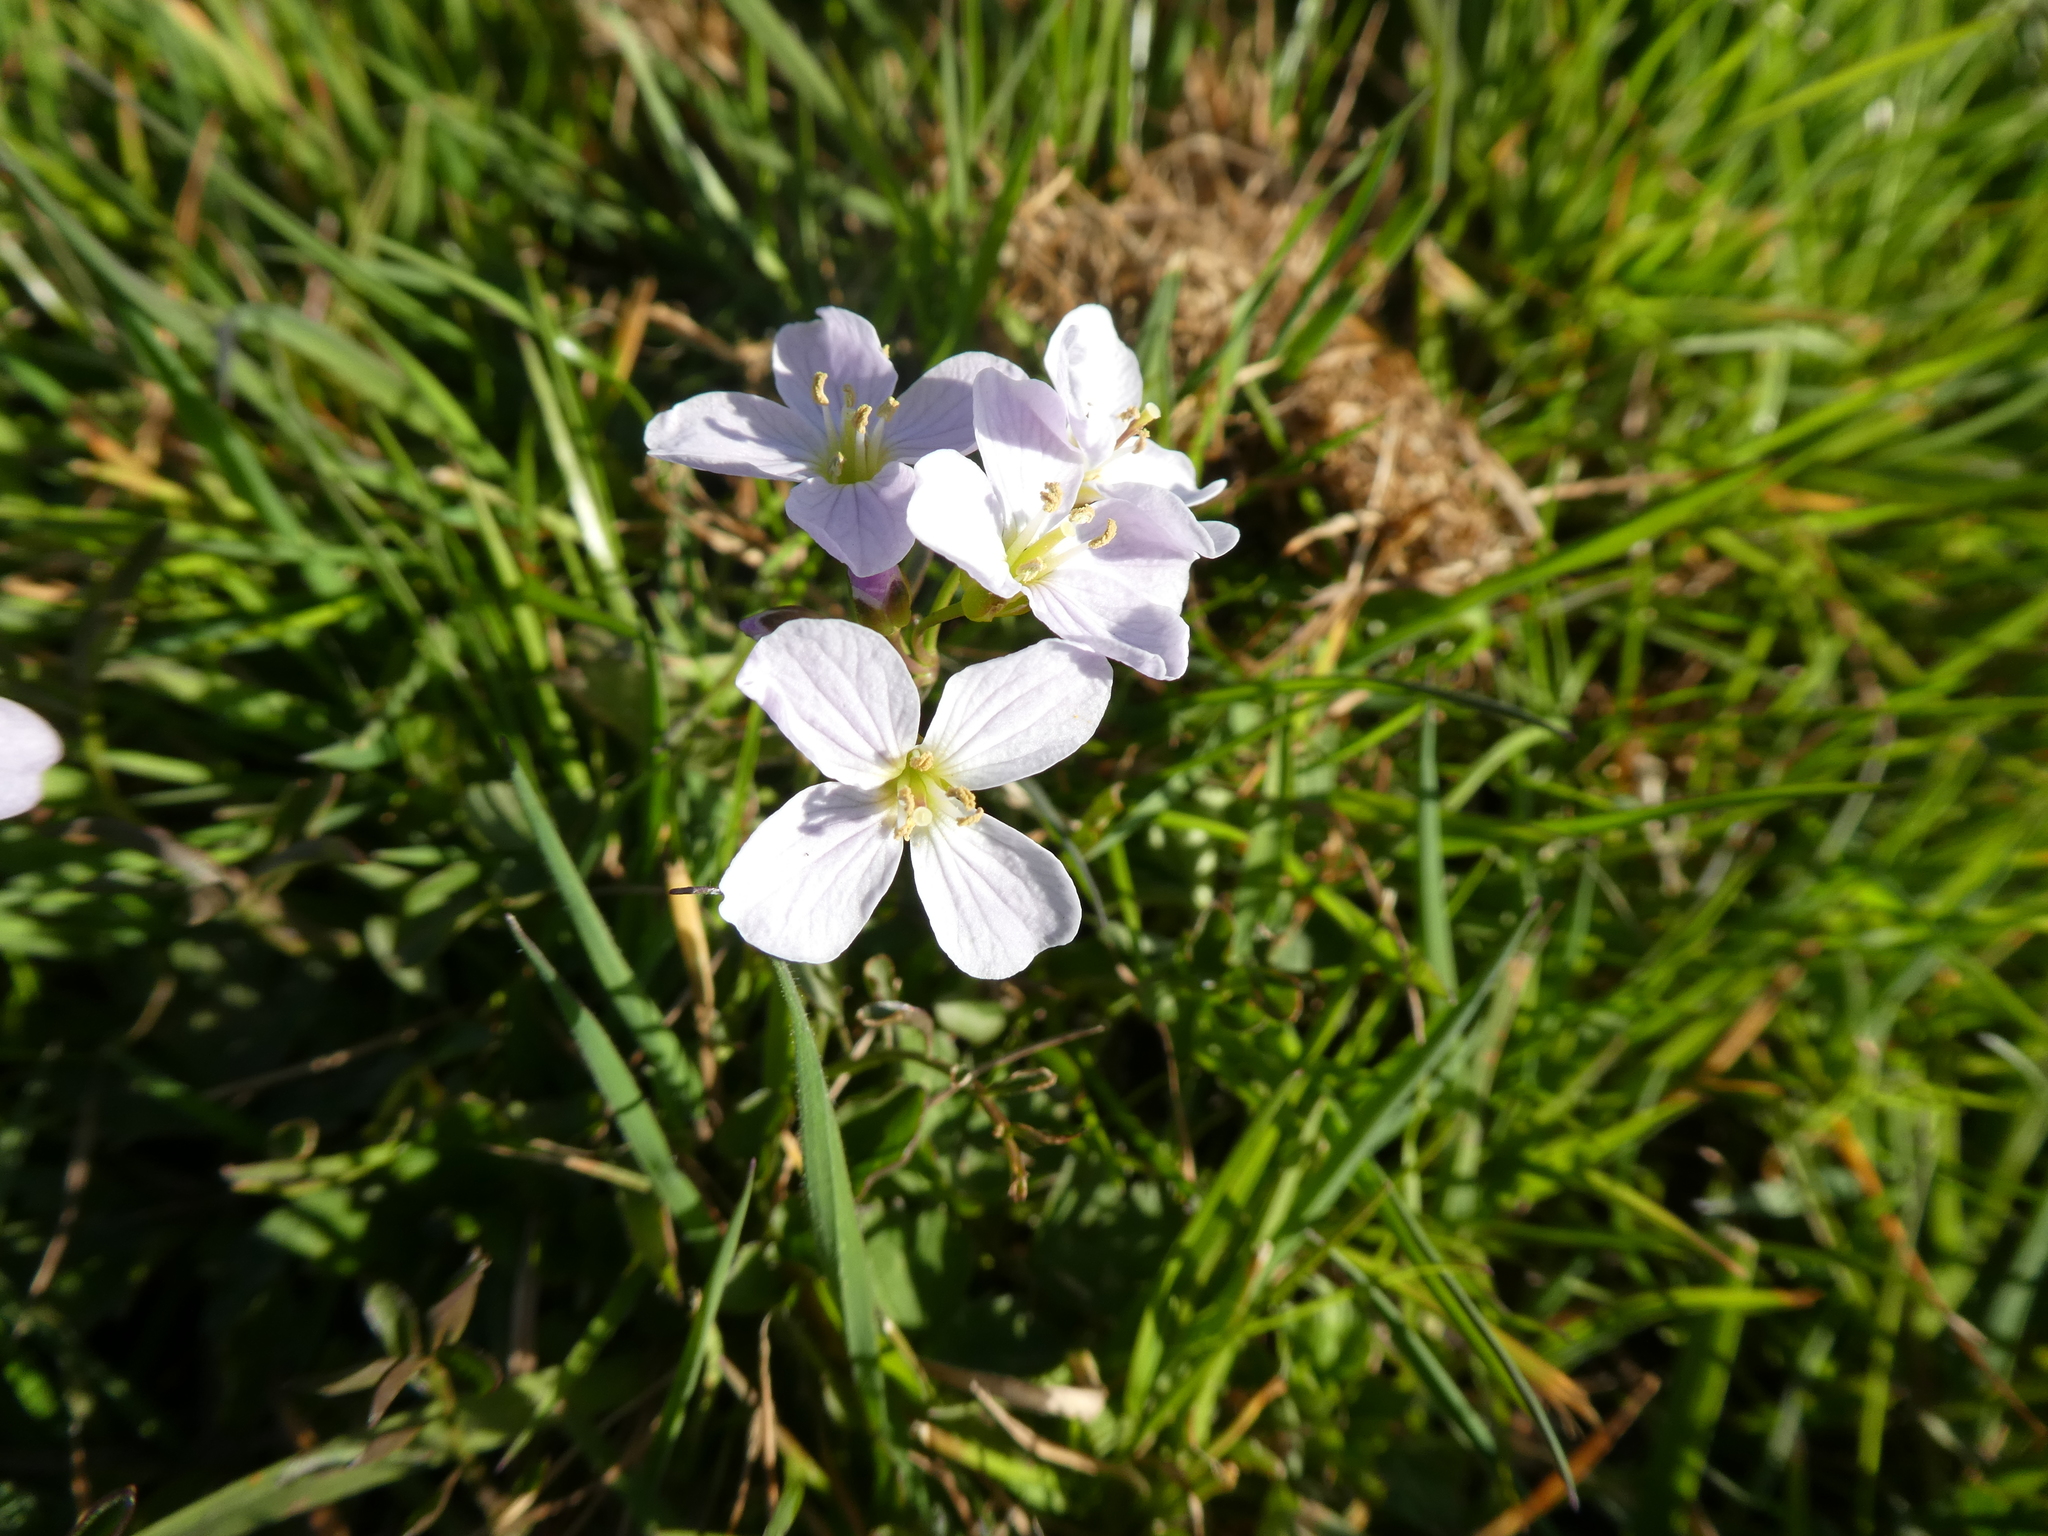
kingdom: Plantae
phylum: Tracheophyta
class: Magnoliopsida
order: Brassicales
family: Brassicaceae
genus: Cardamine
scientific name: Cardamine pratensis
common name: Cuckoo flower
